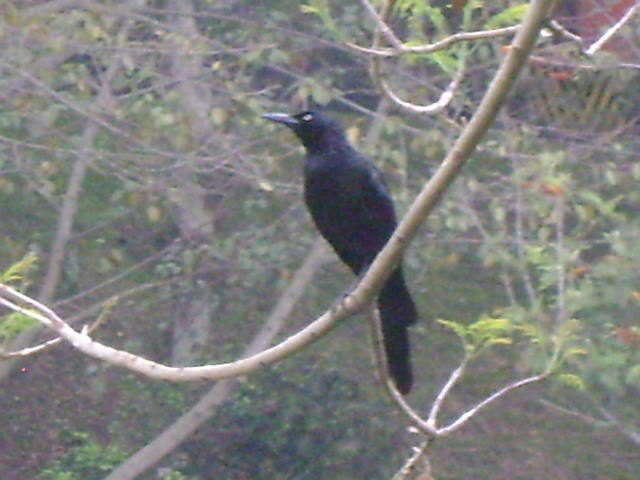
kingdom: Animalia
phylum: Chordata
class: Aves
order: Passeriformes
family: Icteridae
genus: Quiscalus
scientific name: Quiscalus mexicanus
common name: Great-tailed grackle
